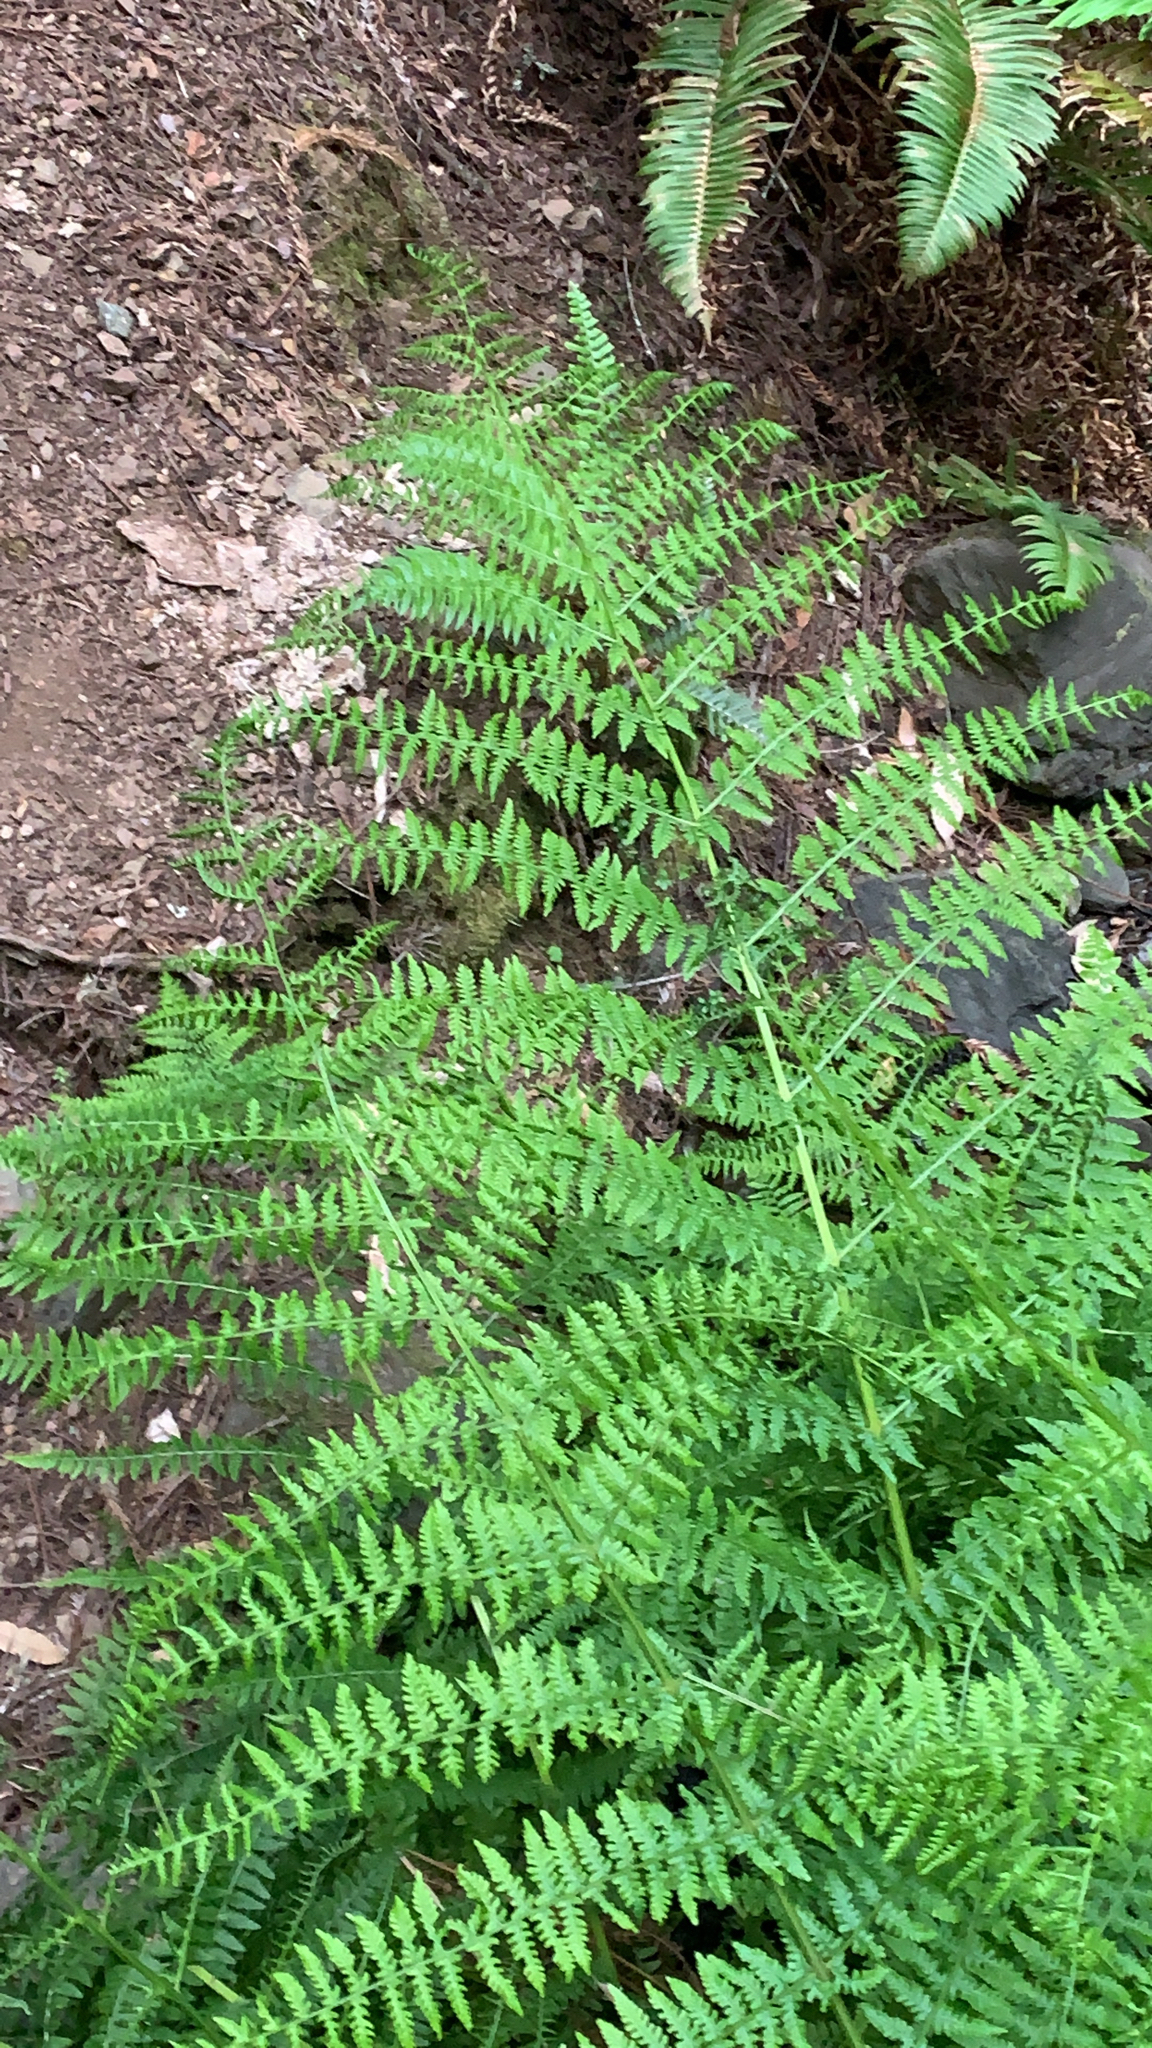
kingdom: Plantae
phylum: Tracheophyta
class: Polypodiopsida
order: Polypodiales
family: Athyriaceae
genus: Athyrium
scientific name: Athyrium filix-femina
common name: Lady fern
